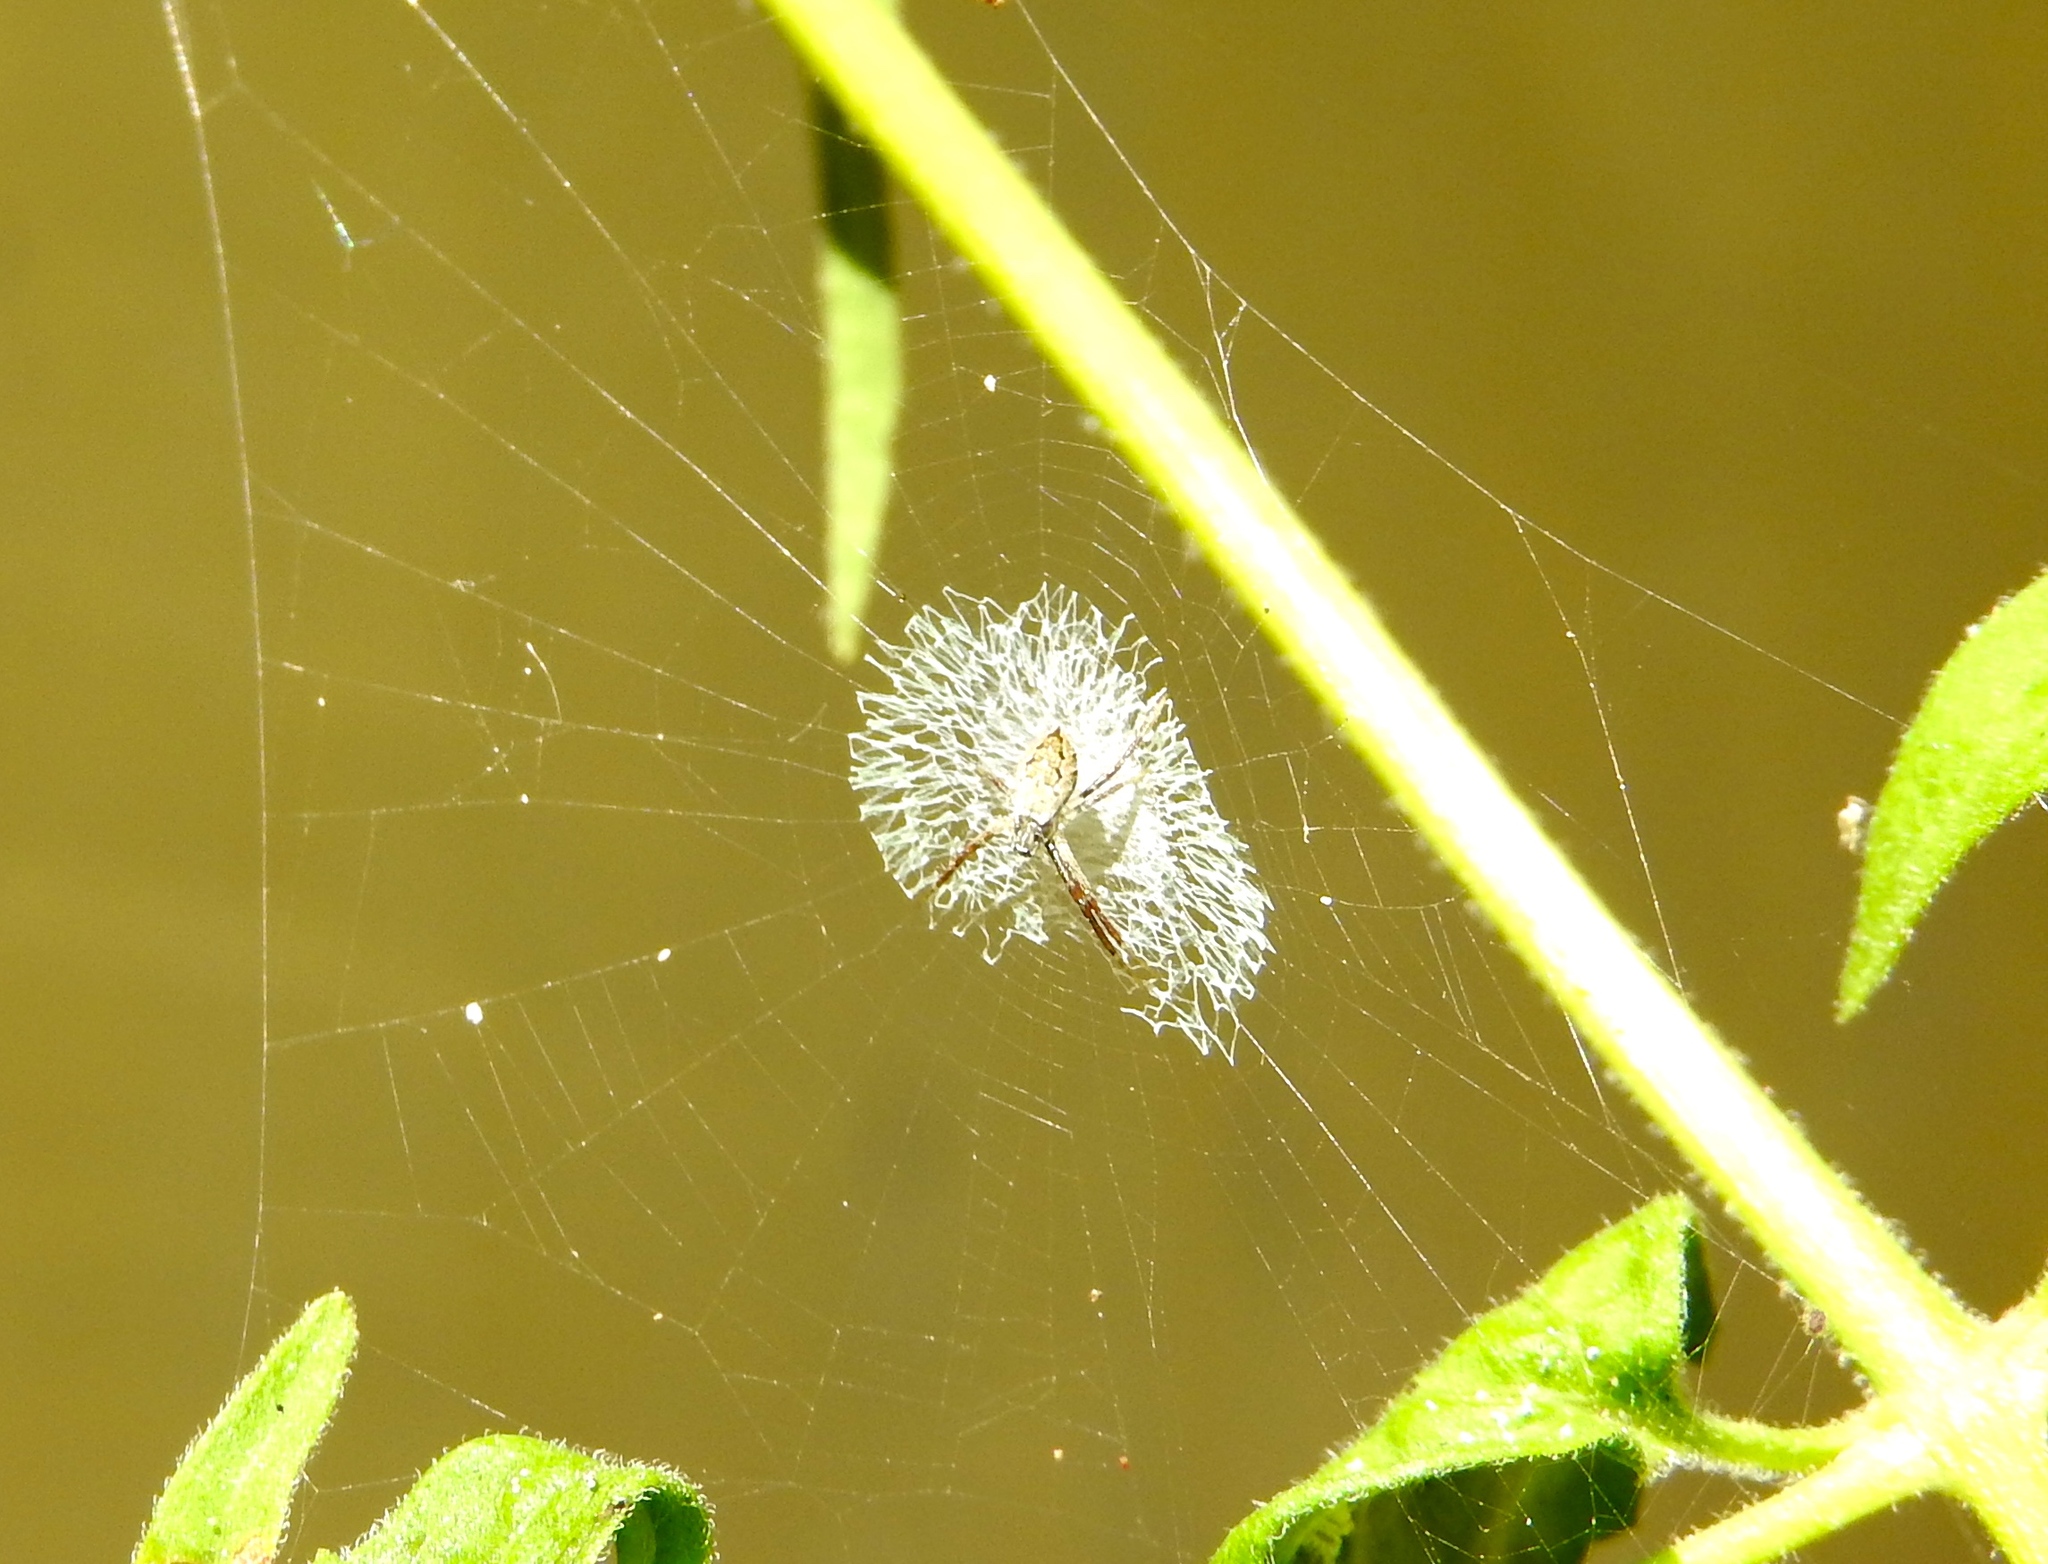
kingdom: Animalia
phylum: Arthropoda
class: Arachnida
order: Araneae
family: Araneidae
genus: Argiope
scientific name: Argiope
